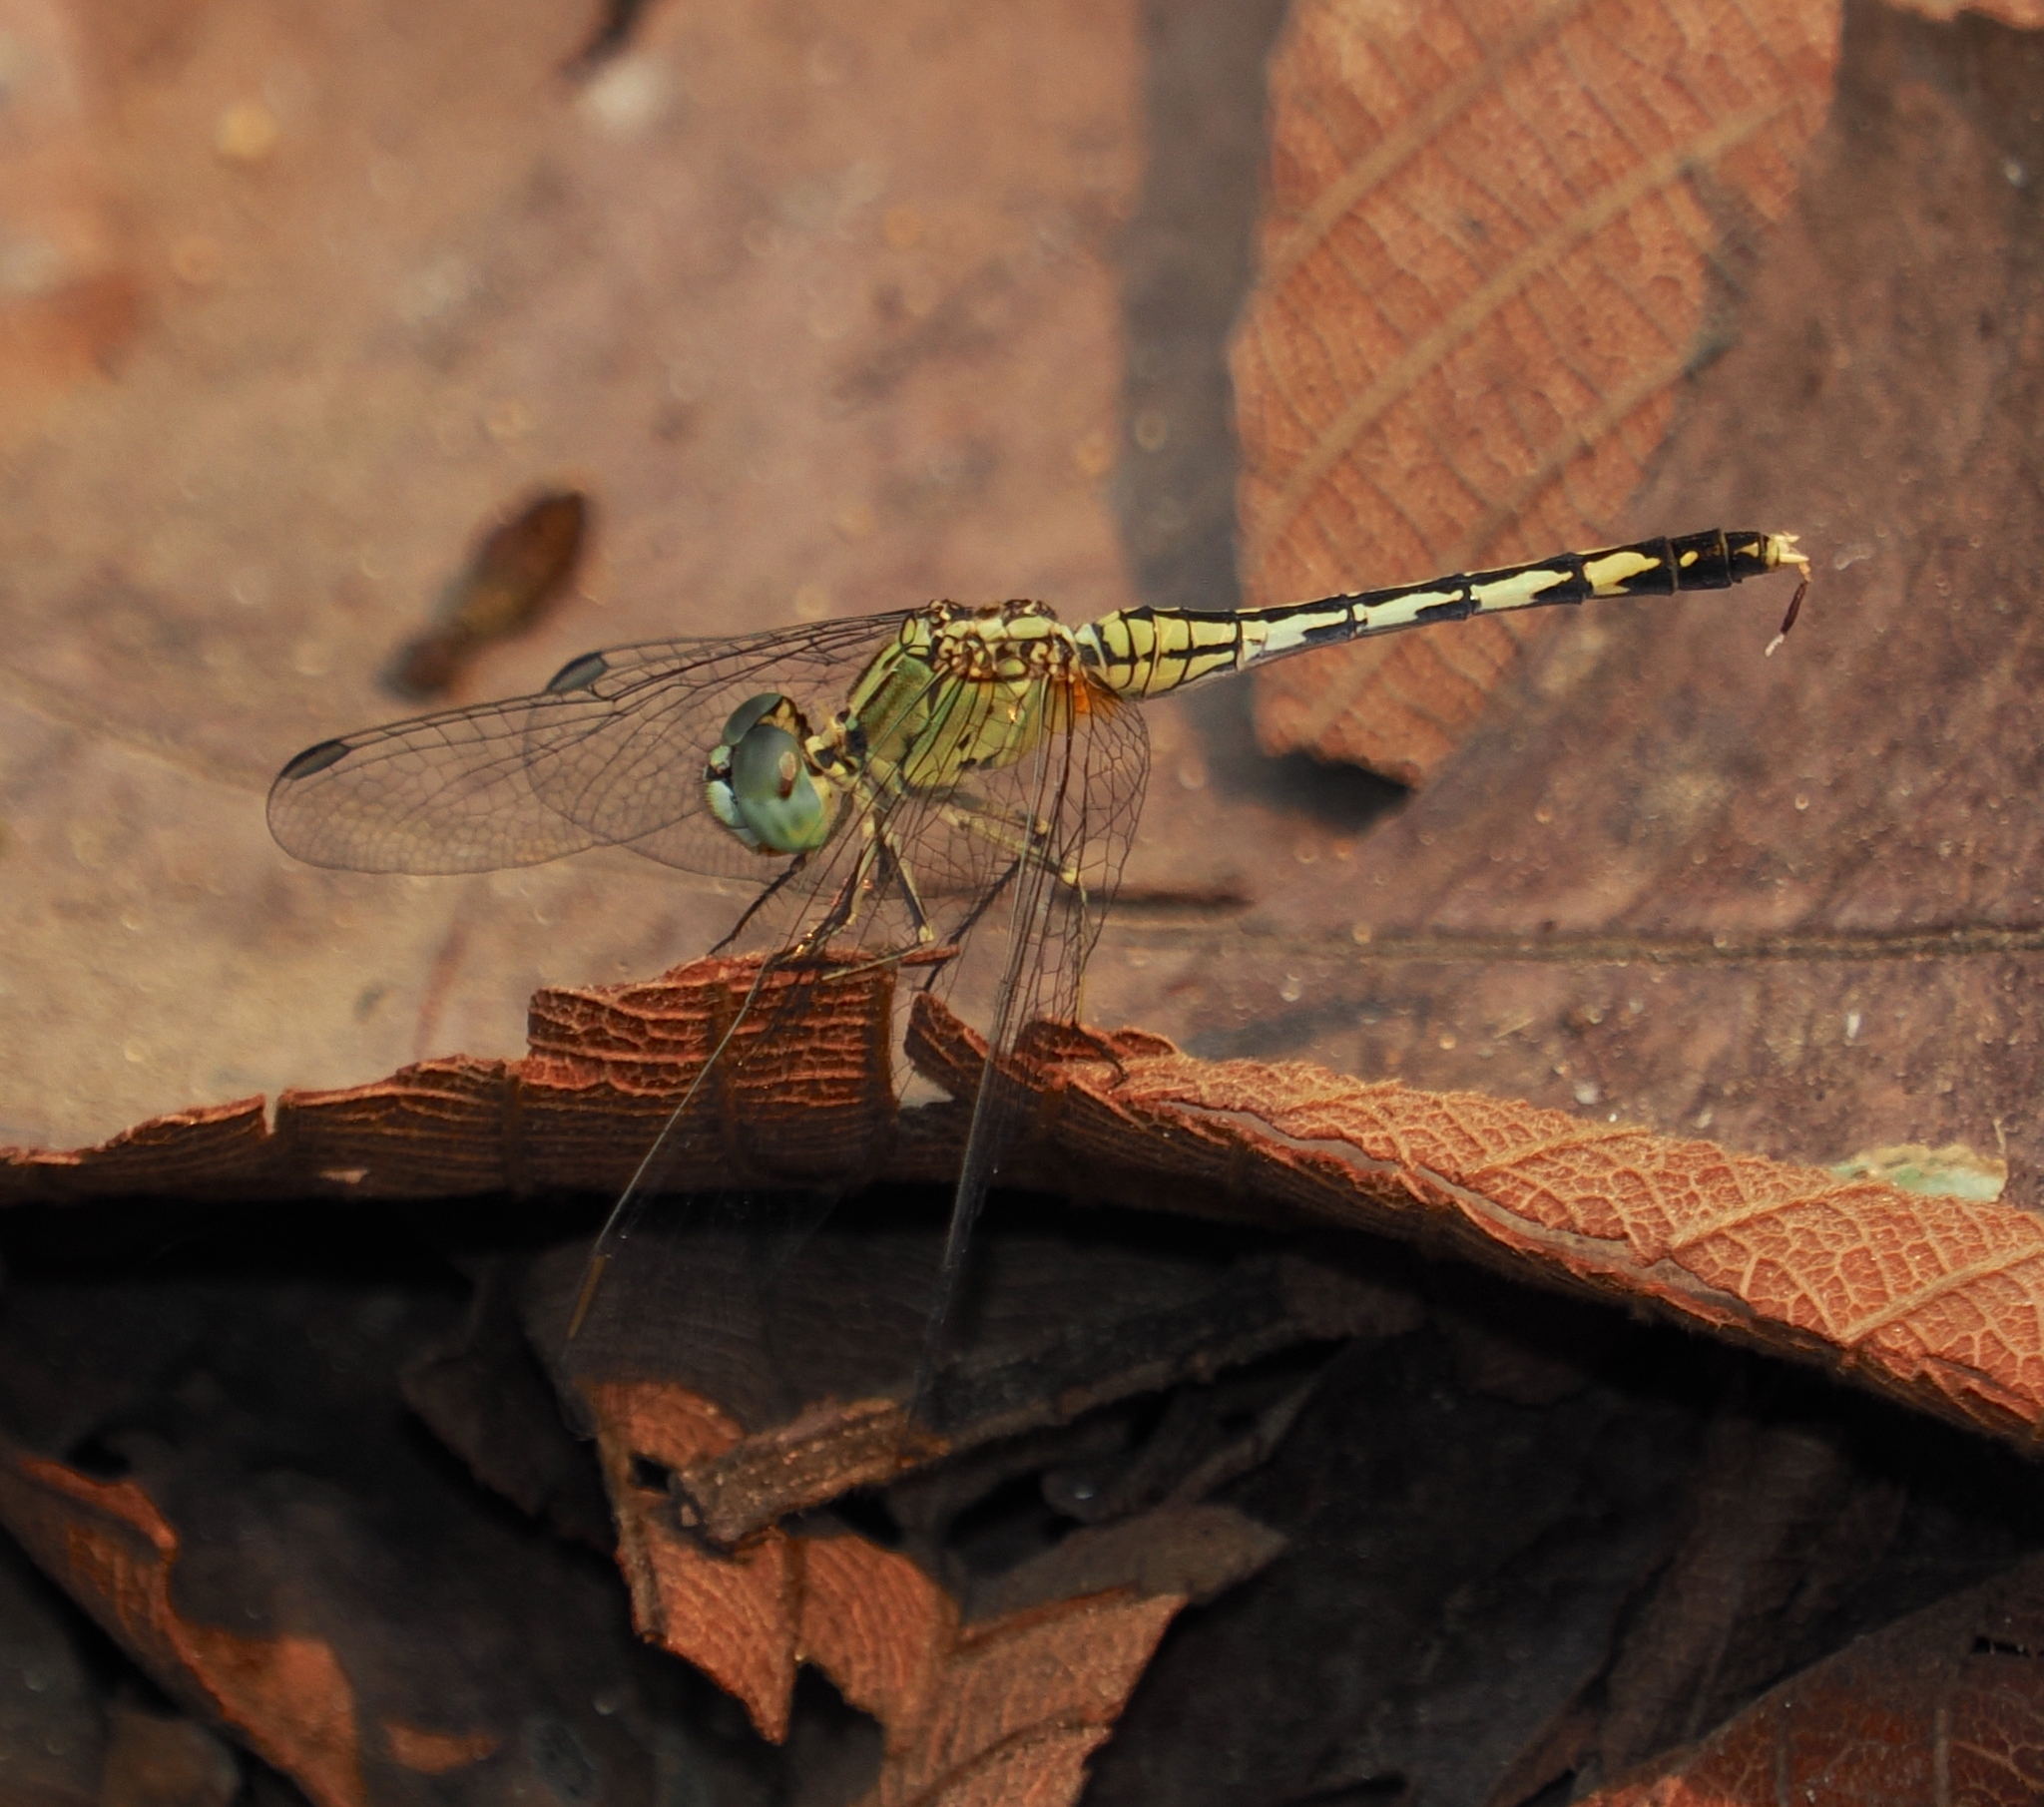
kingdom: Animalia
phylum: Arthropoda
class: Insecta
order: Odonata
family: Libellulidae
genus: Diplacodes
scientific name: Diplacodes trivialis
